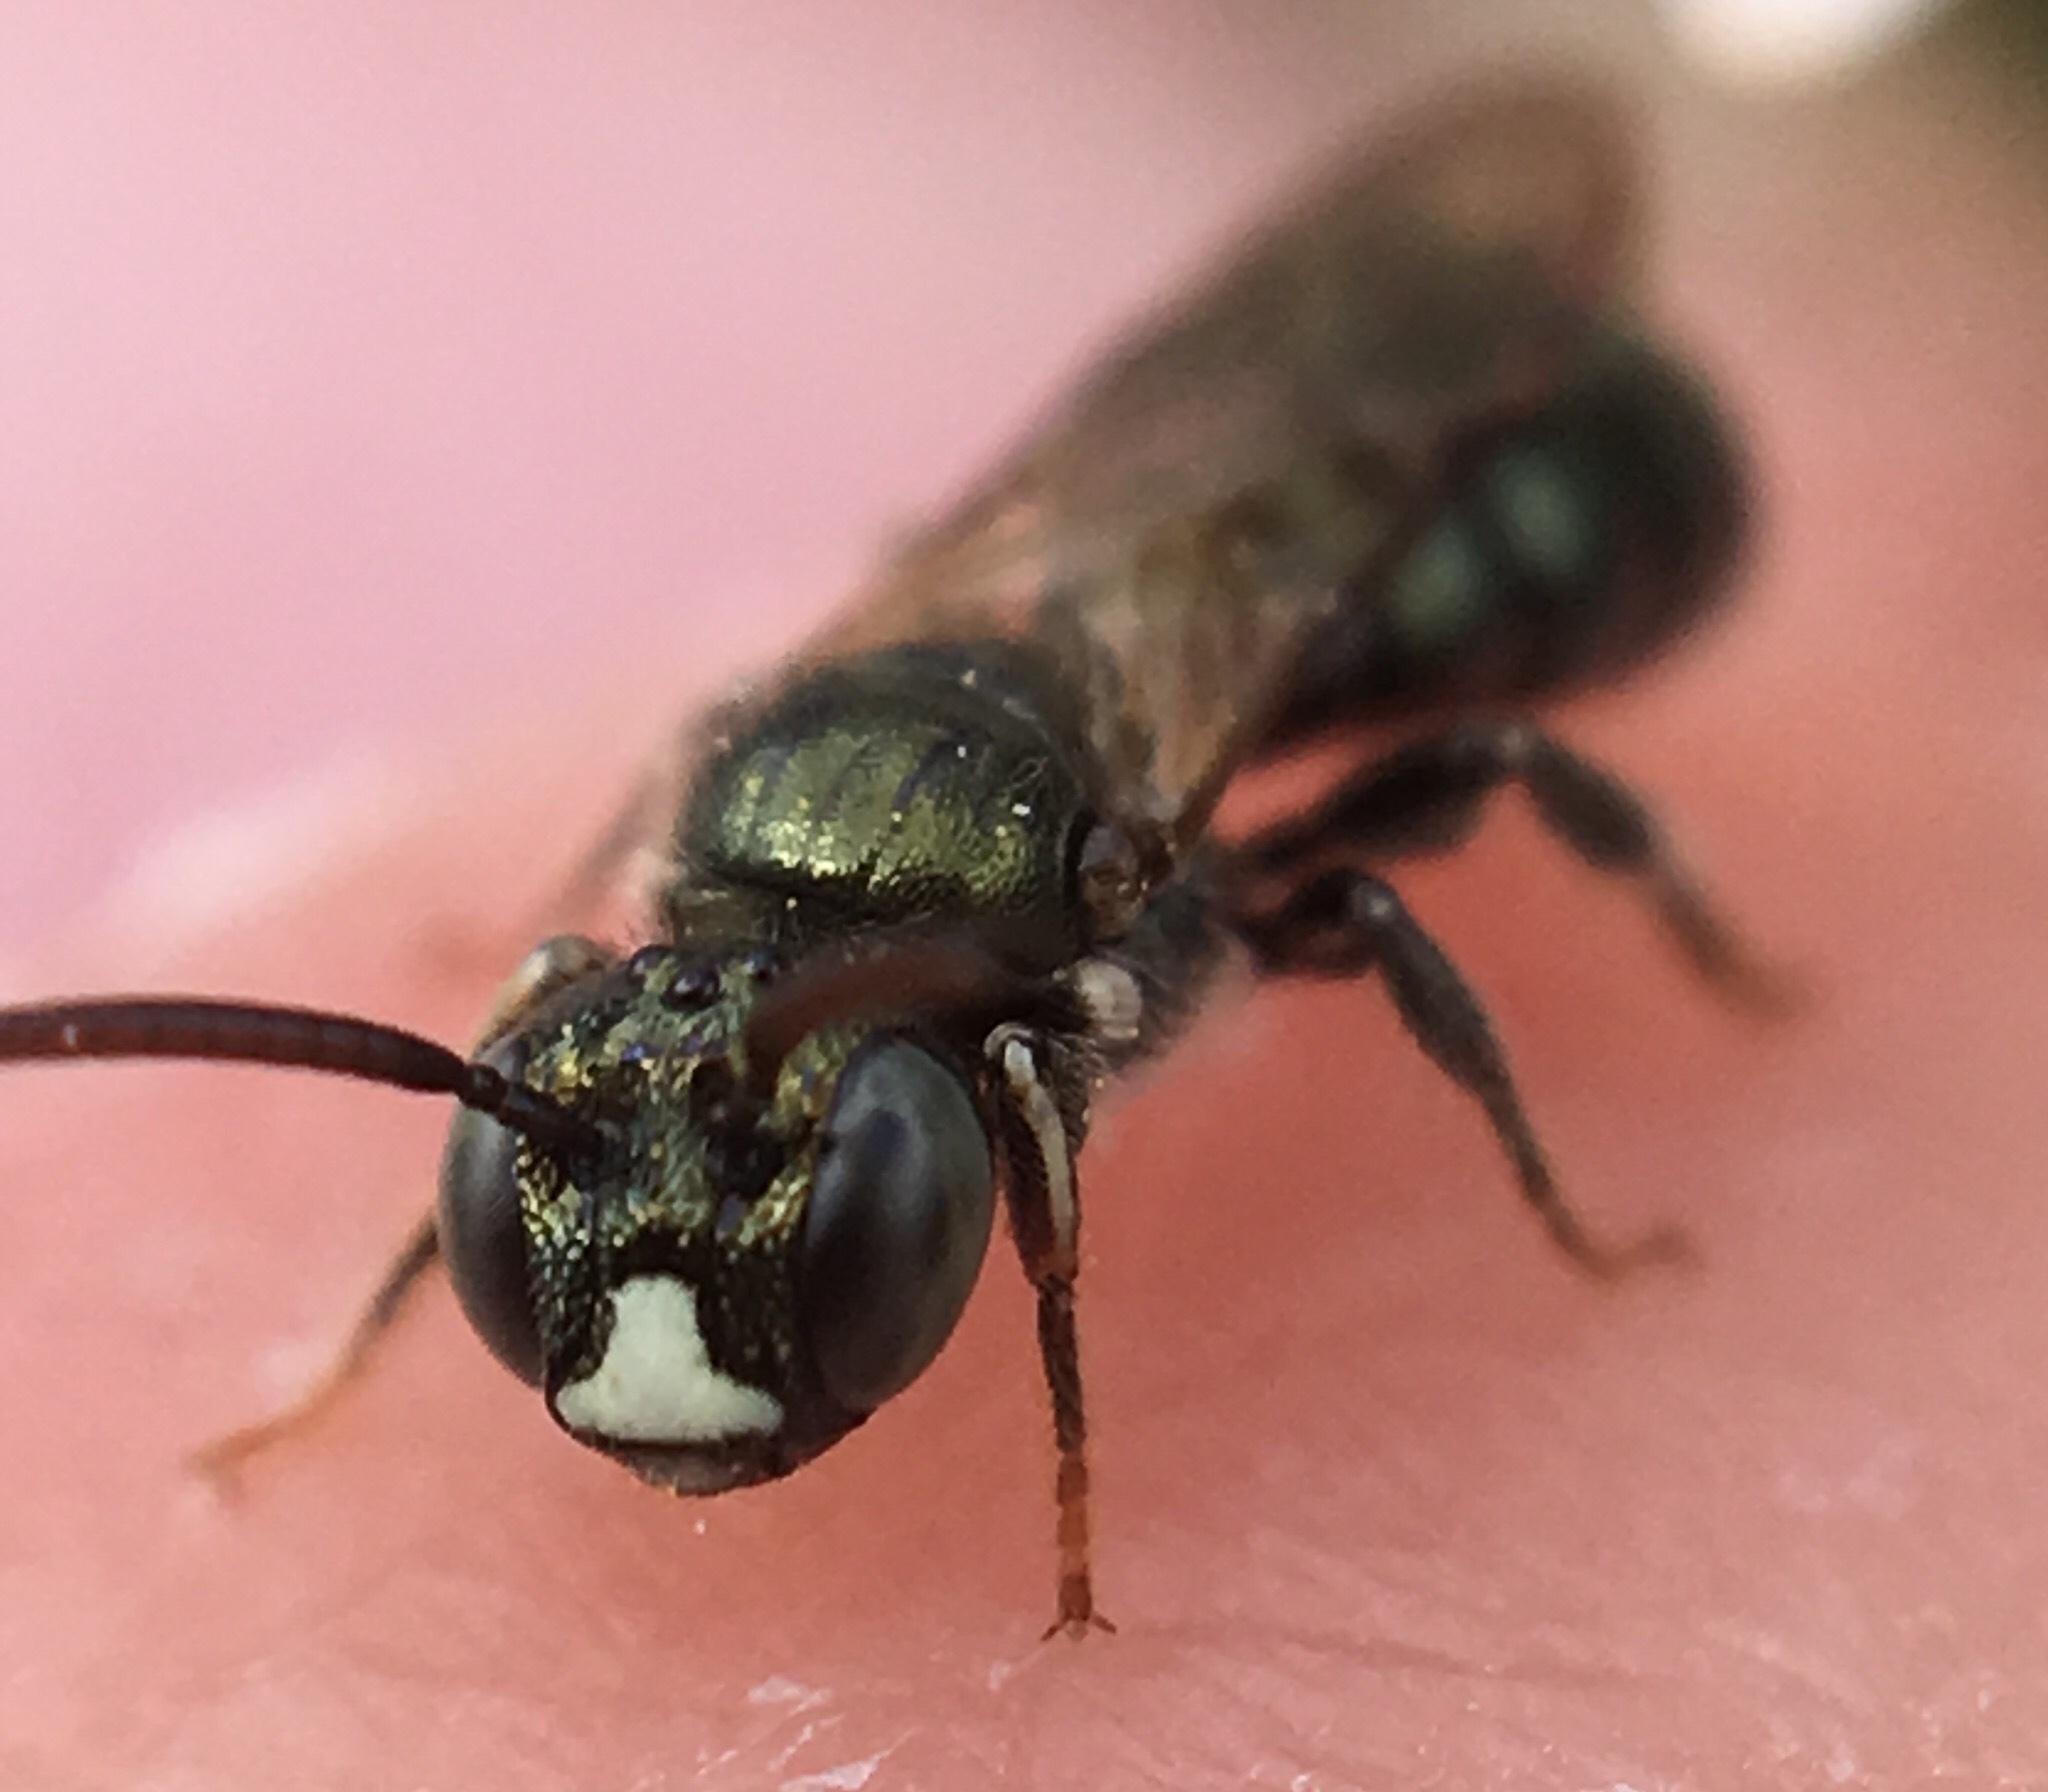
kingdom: Animalia
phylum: Arthropoda
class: Insecta
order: Hymenoptera
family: Apidae
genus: Ceratina
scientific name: Ceratina strenua
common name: Nimble carpenter bee
